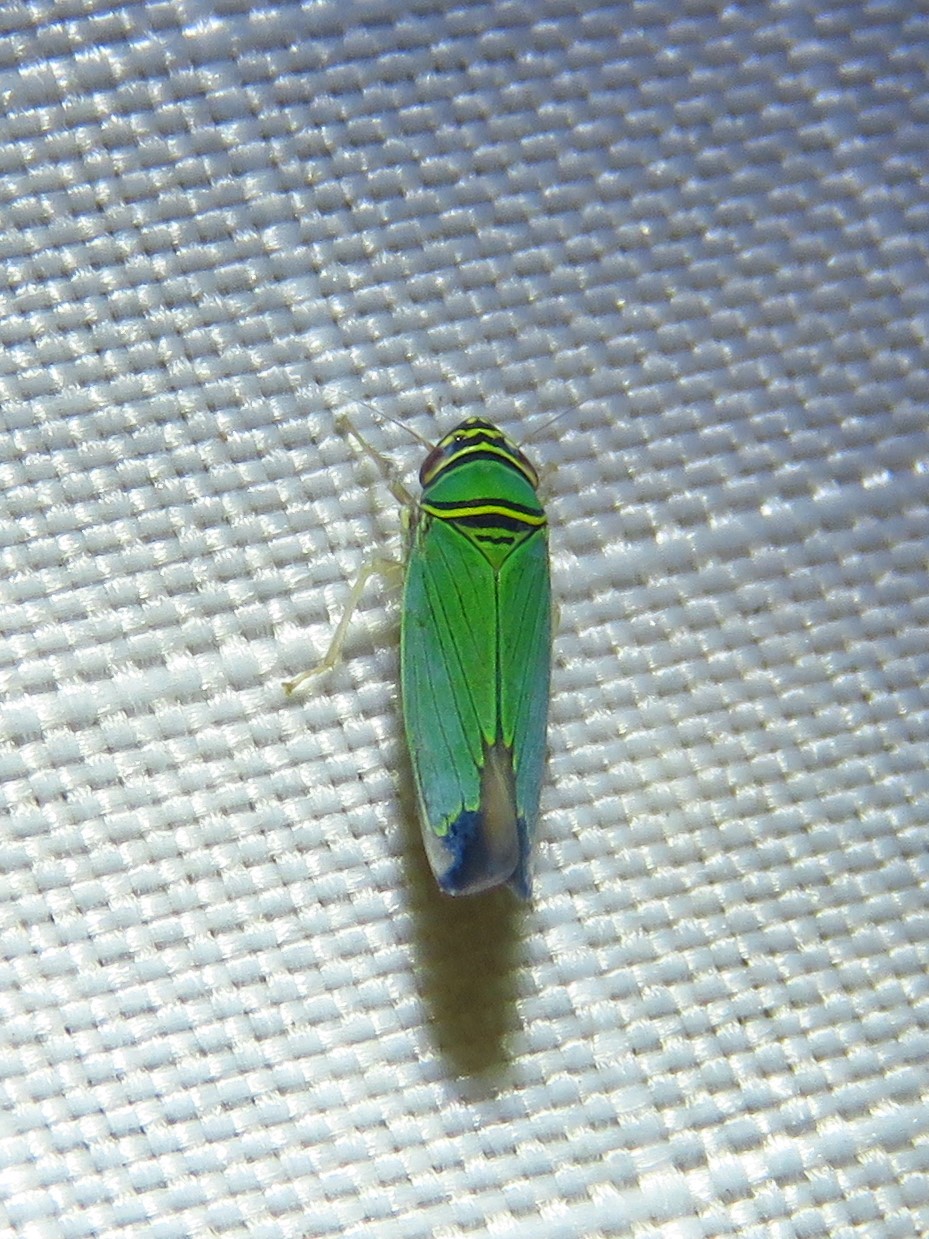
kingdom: Animalia
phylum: Arthropoda
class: Insecta
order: Hemiptera
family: Cicadellidae
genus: Tylozygus
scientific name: Tylozygus geometricus
